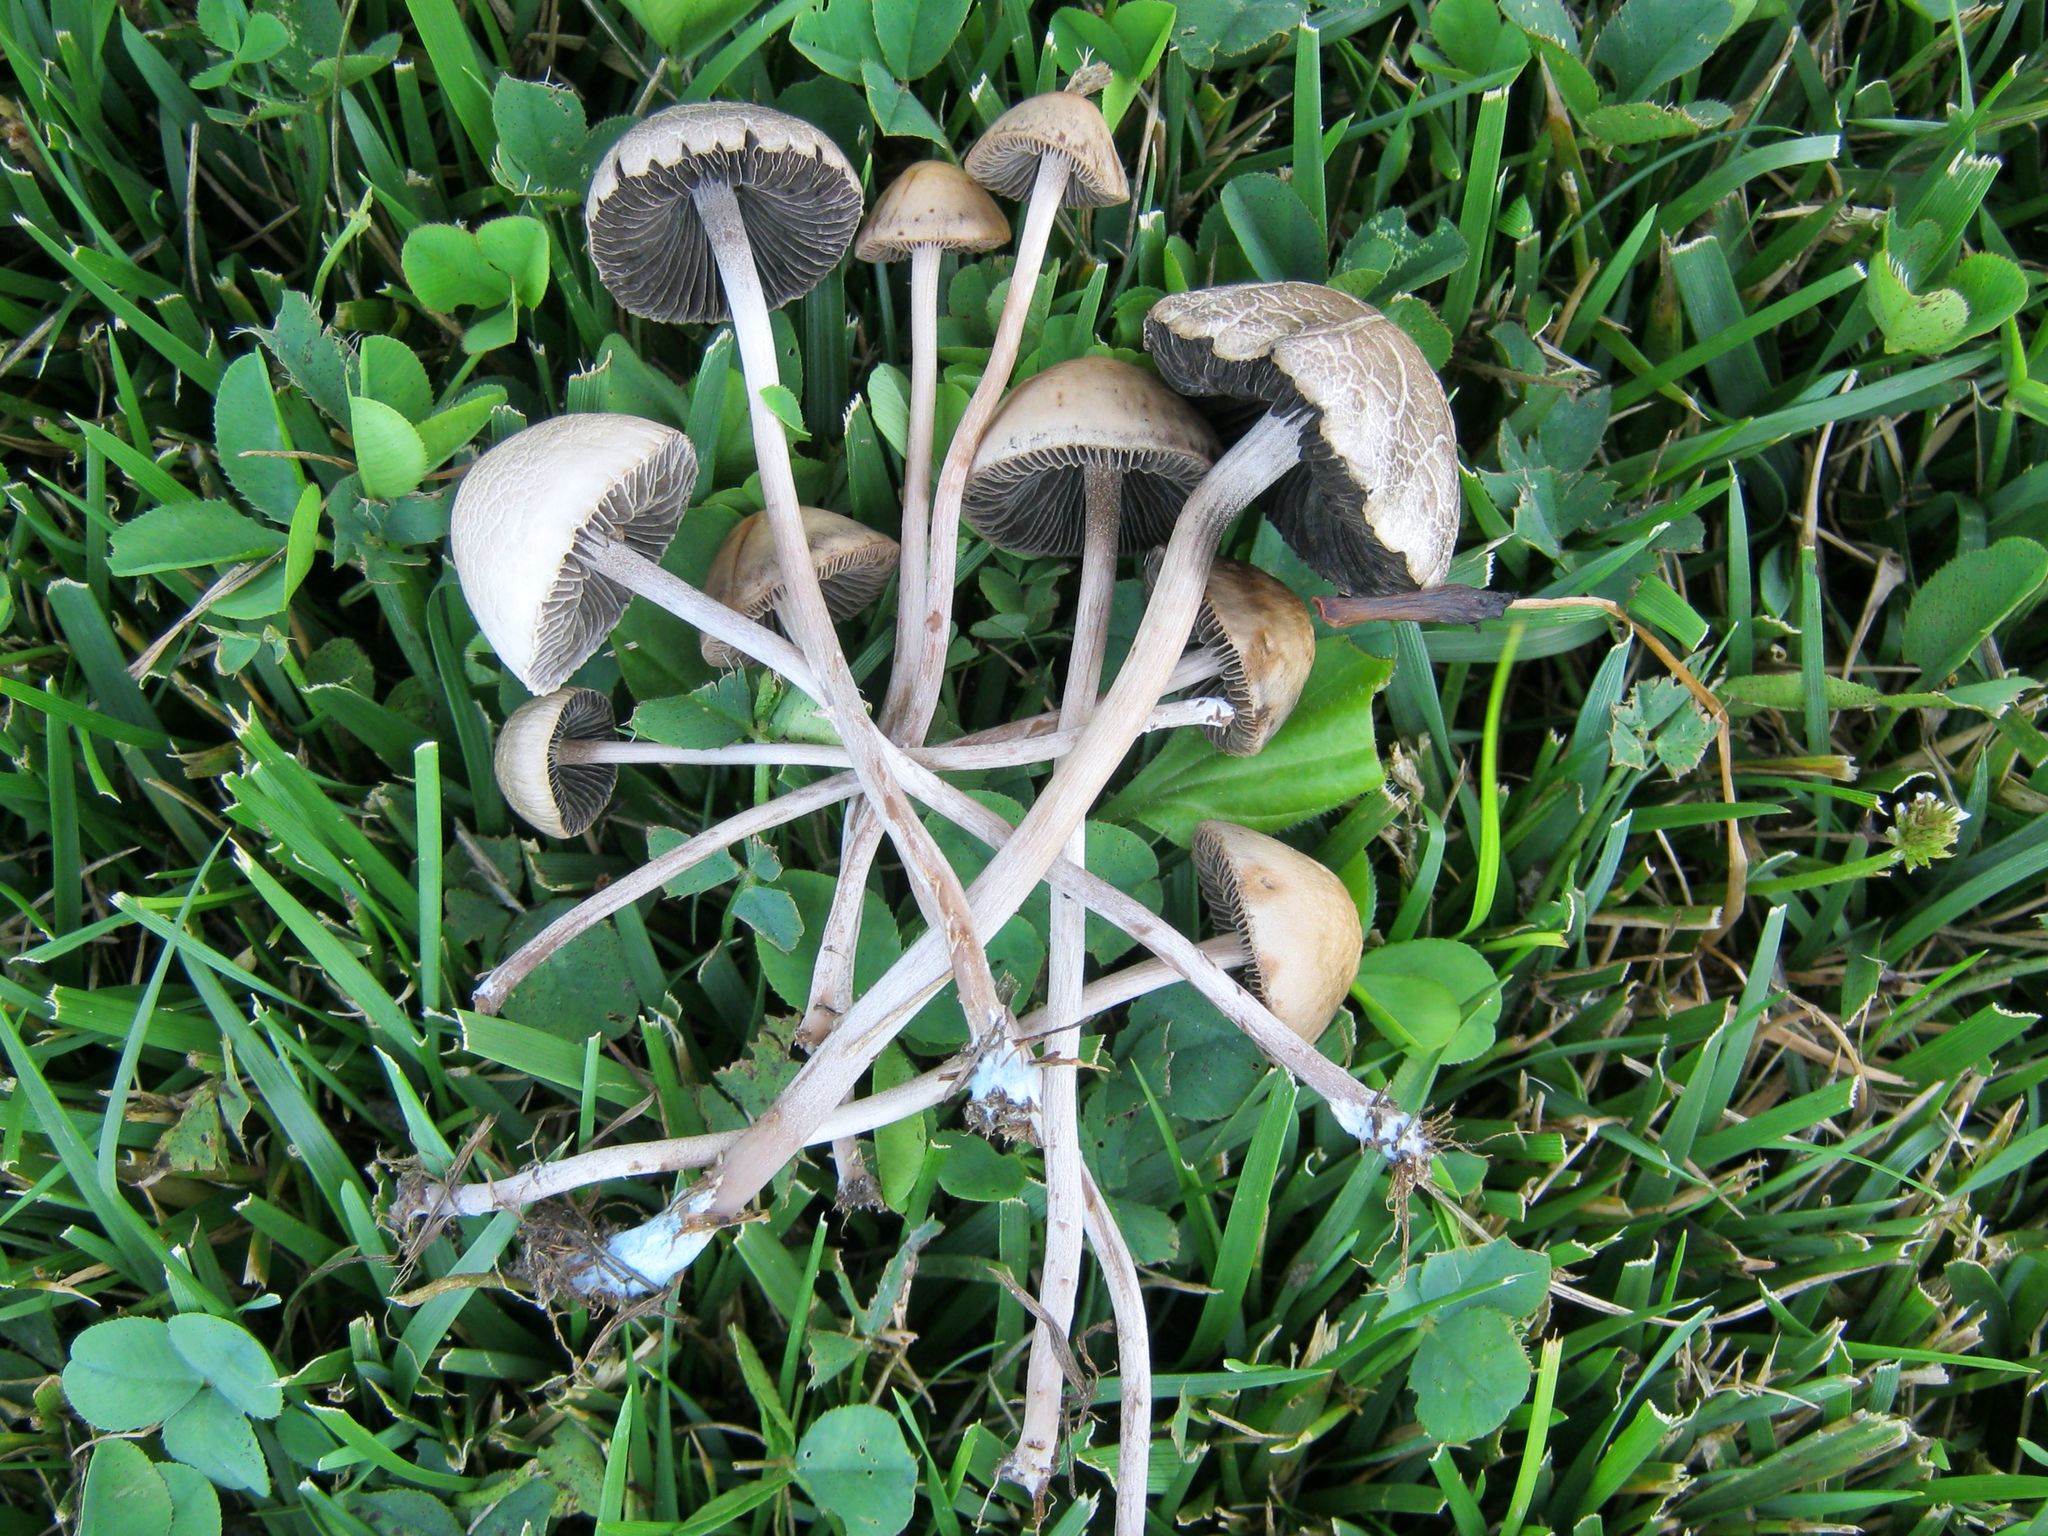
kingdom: Fungi
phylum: Basidiomycota
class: Agaricomycetes
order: Agaricales
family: Bolbitiaceae
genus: Panaeolus
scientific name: Panaeolus subbalteatus
